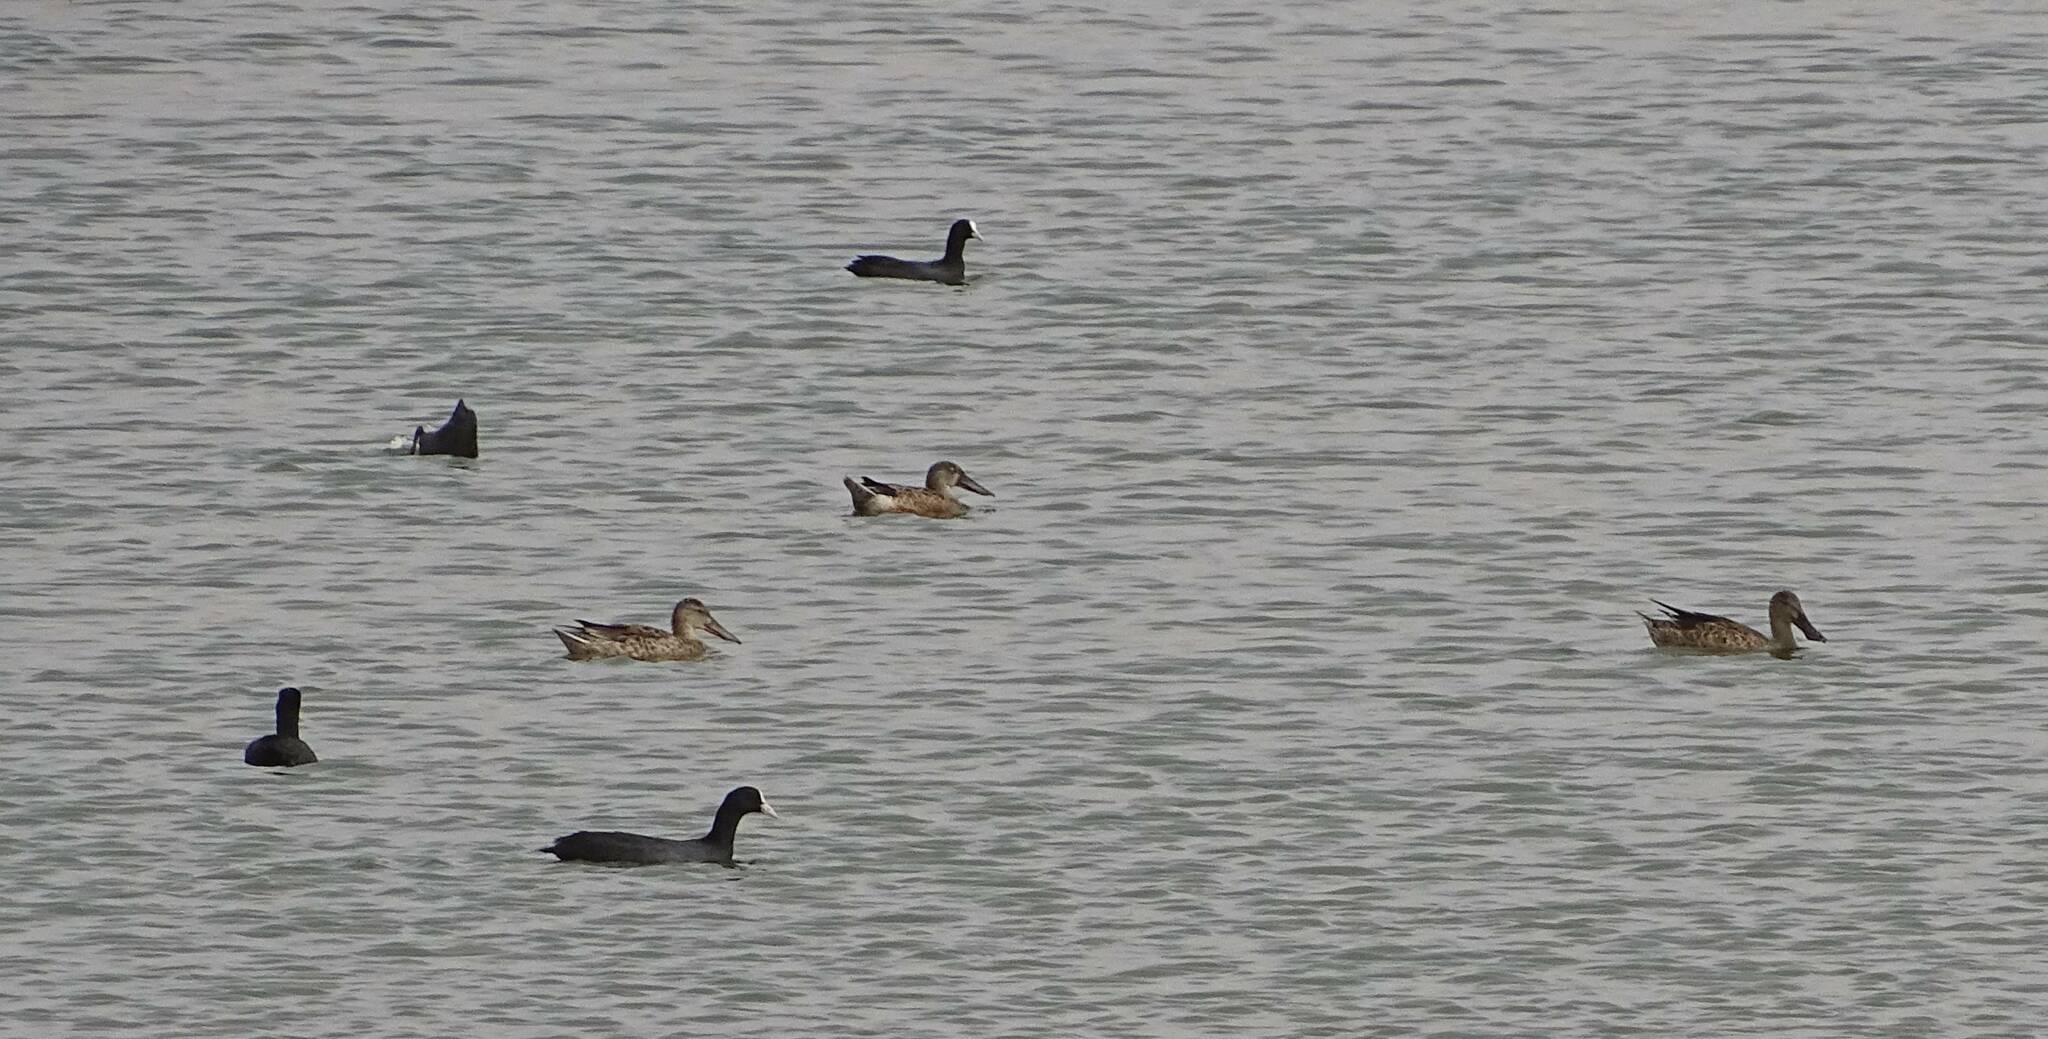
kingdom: Animalia
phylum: Chordata
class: Aves
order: Anseriformes
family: Anatidae
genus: Spatula
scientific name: Spatula clypeata
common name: Northern shoveler
